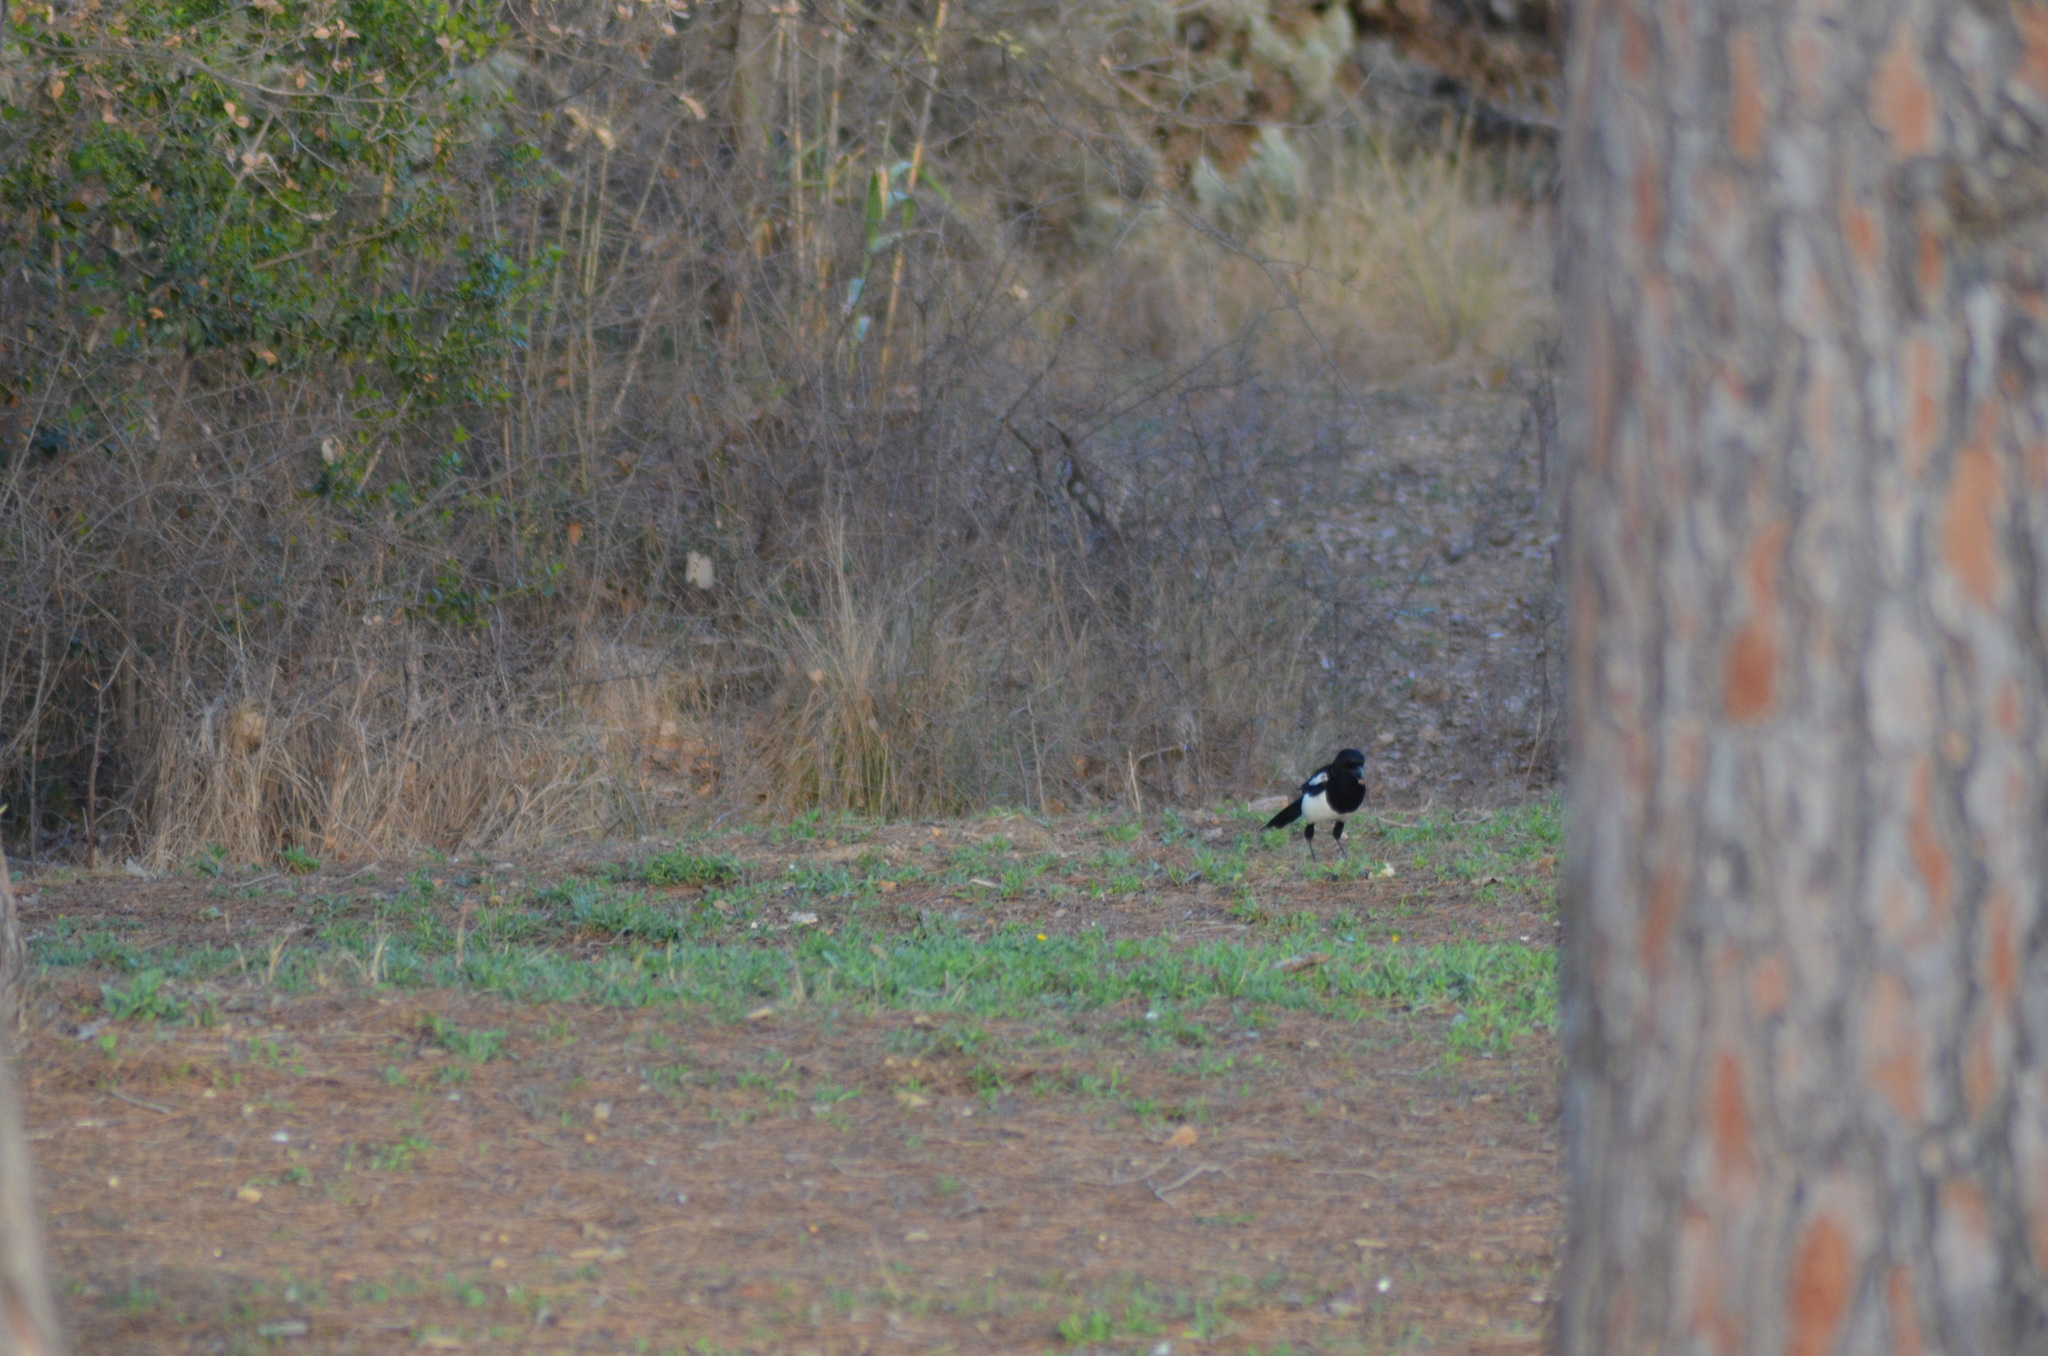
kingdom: Animalia
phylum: Chordata
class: Aves
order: Passeriformes
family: Corvidae
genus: Pica
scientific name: Pica pica
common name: Eurasian magpie
